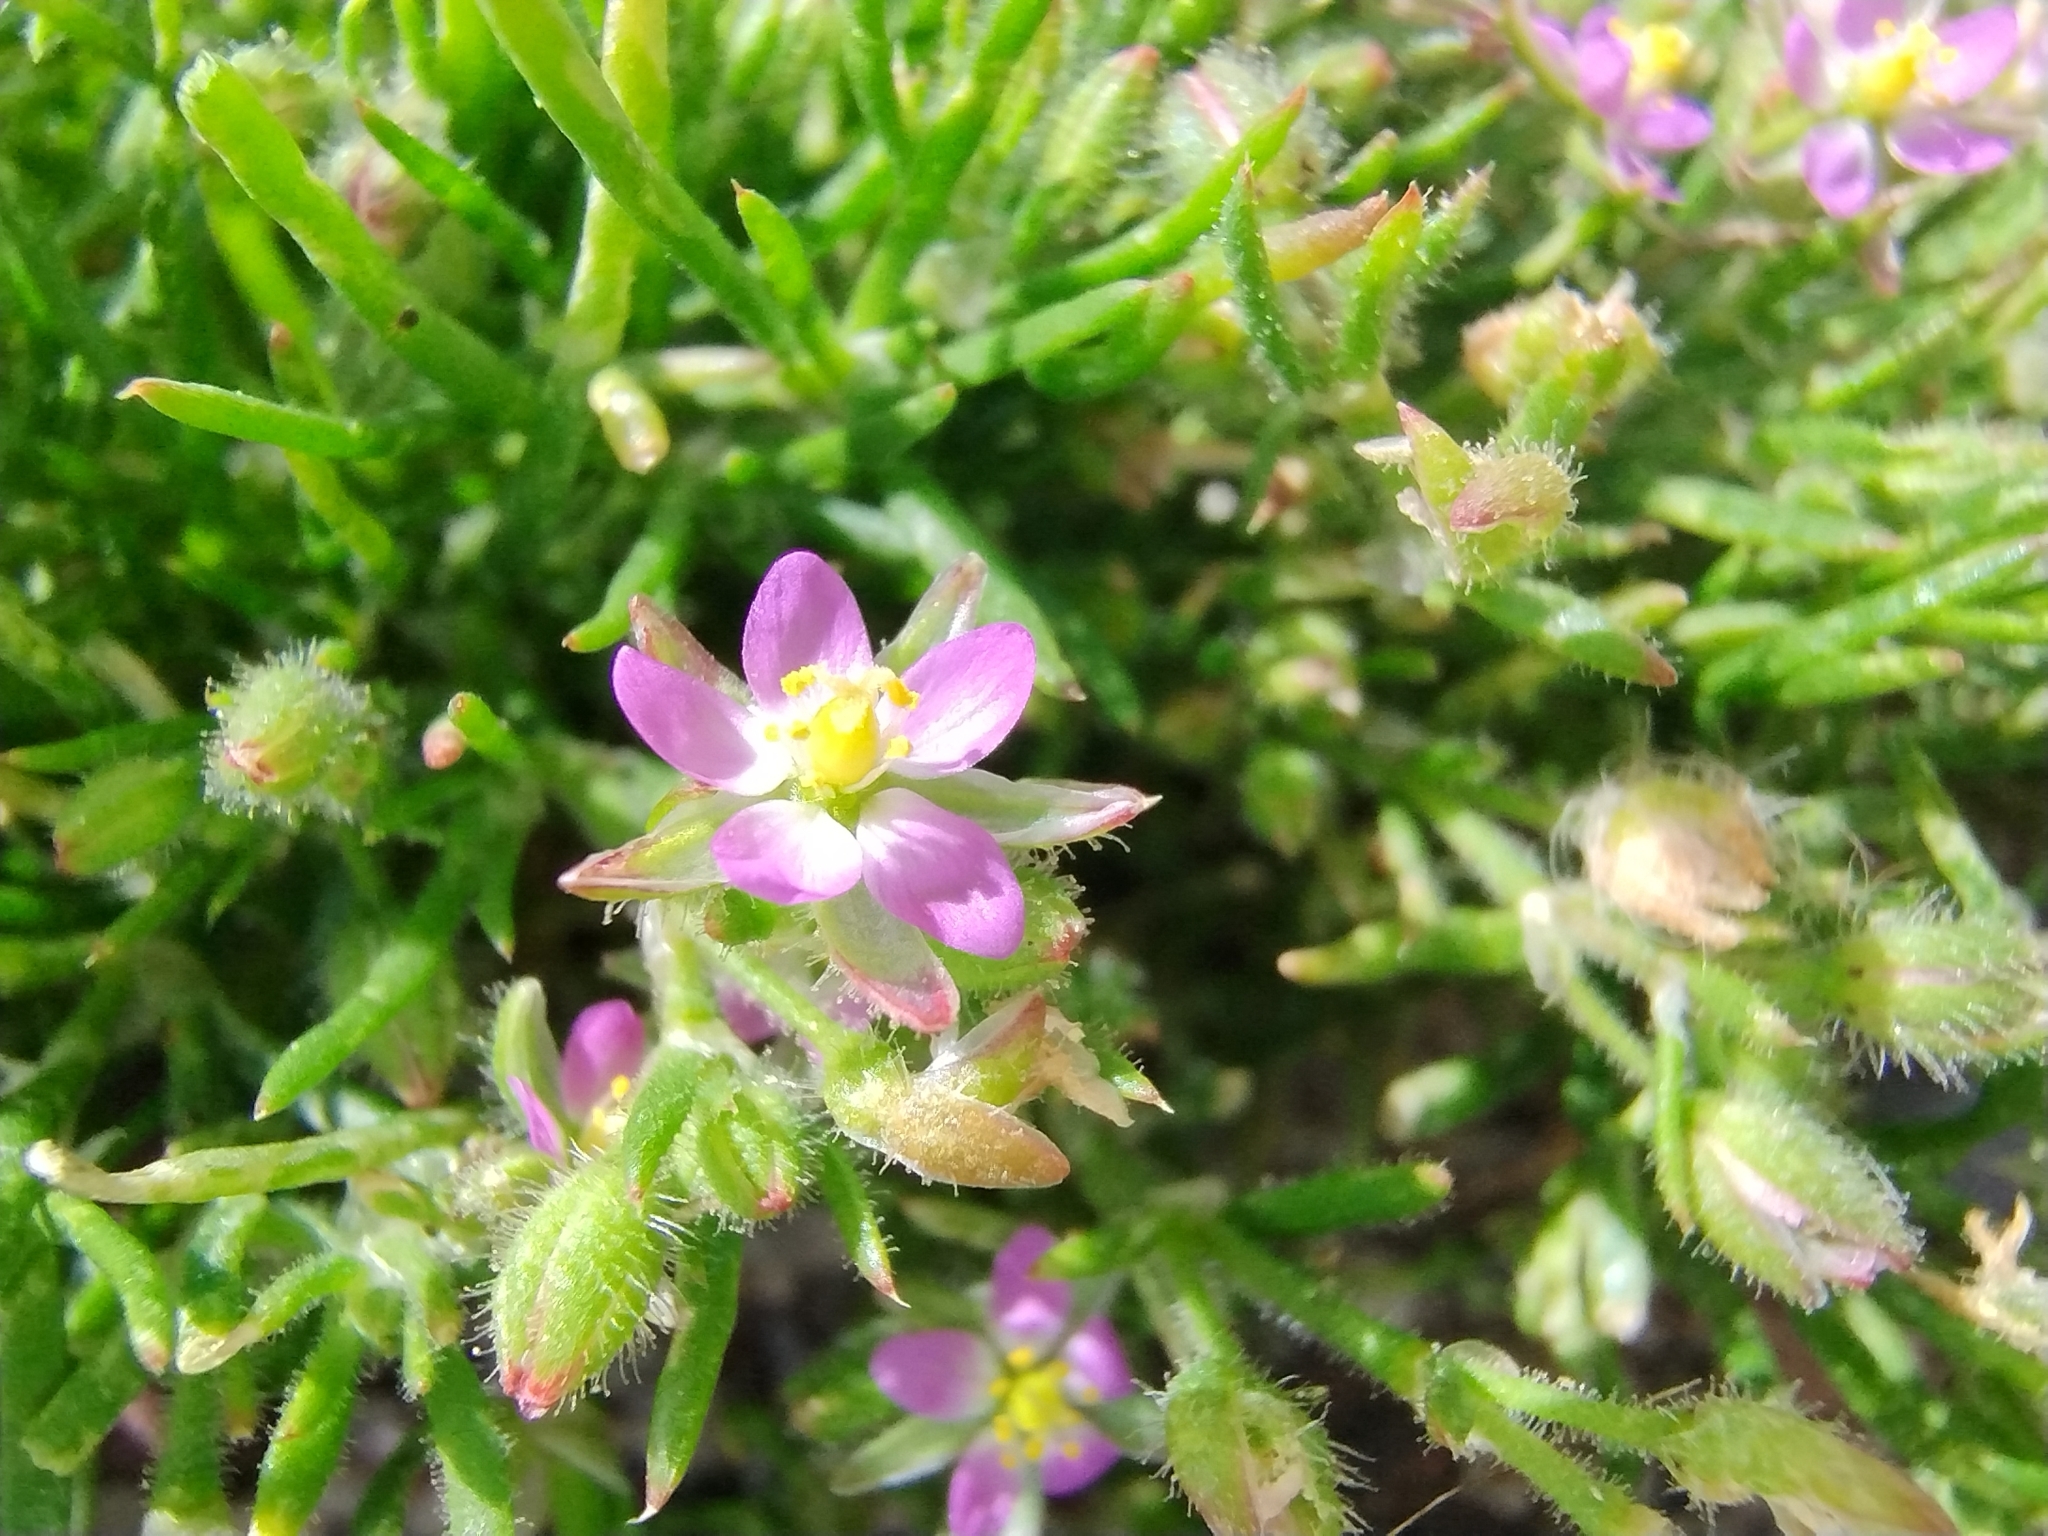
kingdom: Plantae
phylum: Tracheophyta
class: Magnoliopsida
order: Caryophyllales
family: Caryophyllaceae
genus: Spergularia
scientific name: Spergularia bocconei
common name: Greek sea-spurrey
